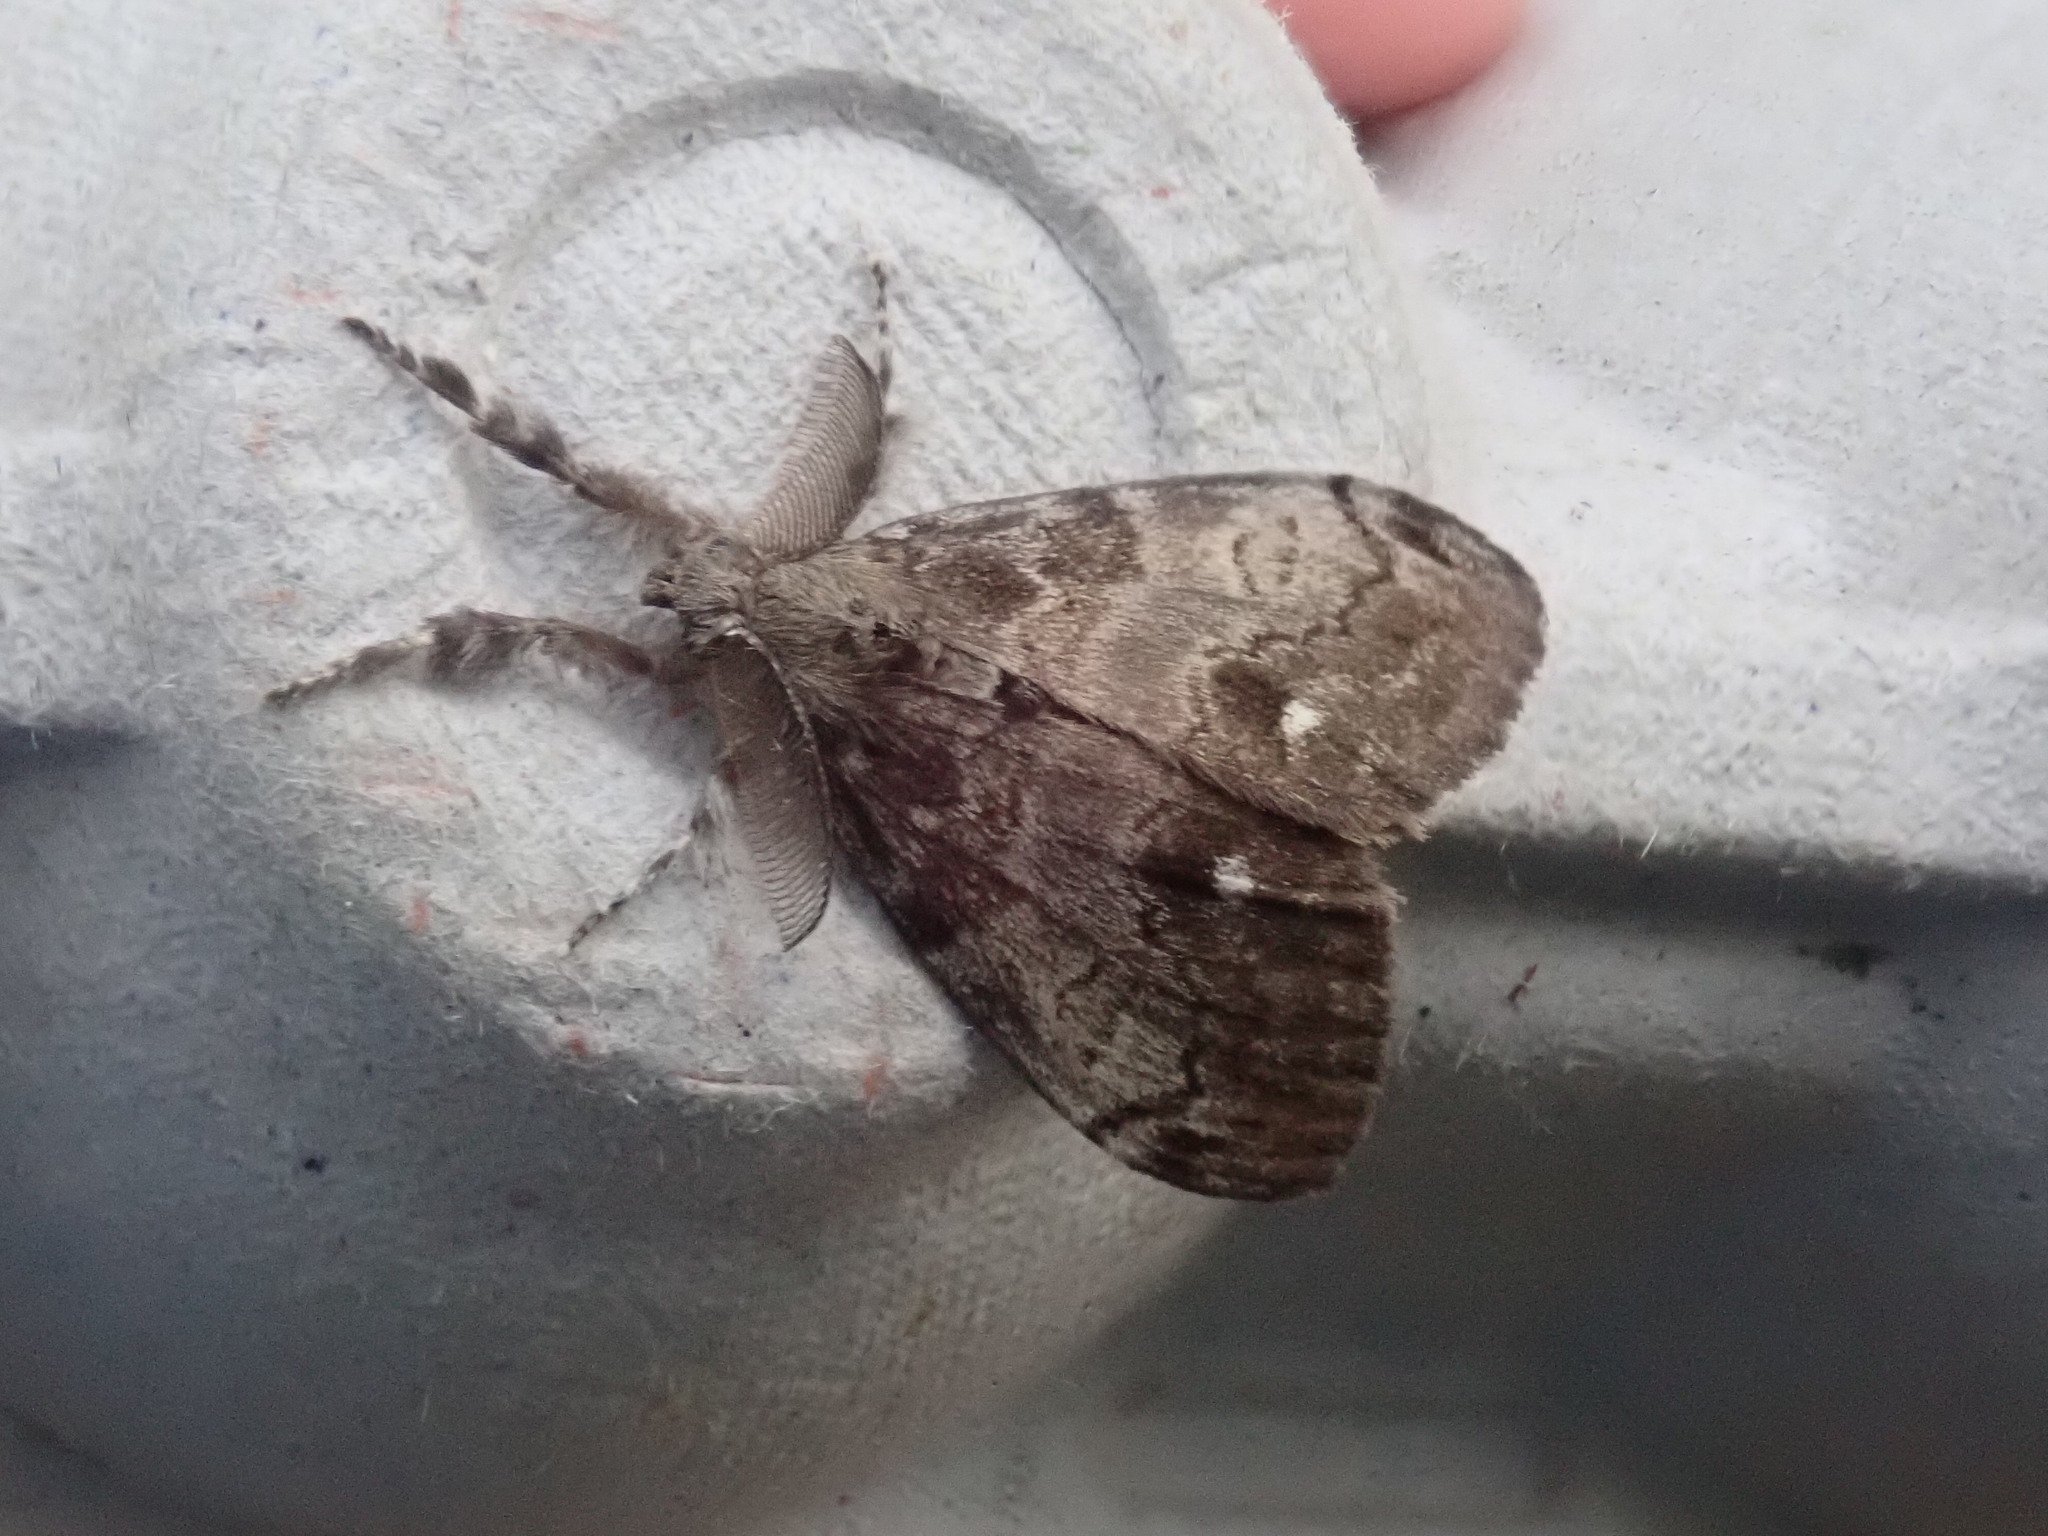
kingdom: Animalia
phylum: Arthropoda
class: Insecta
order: Lepidoptera
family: Erebidae
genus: Orgyia
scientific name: Orgyia leucostigma
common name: White-marked tussock moth
